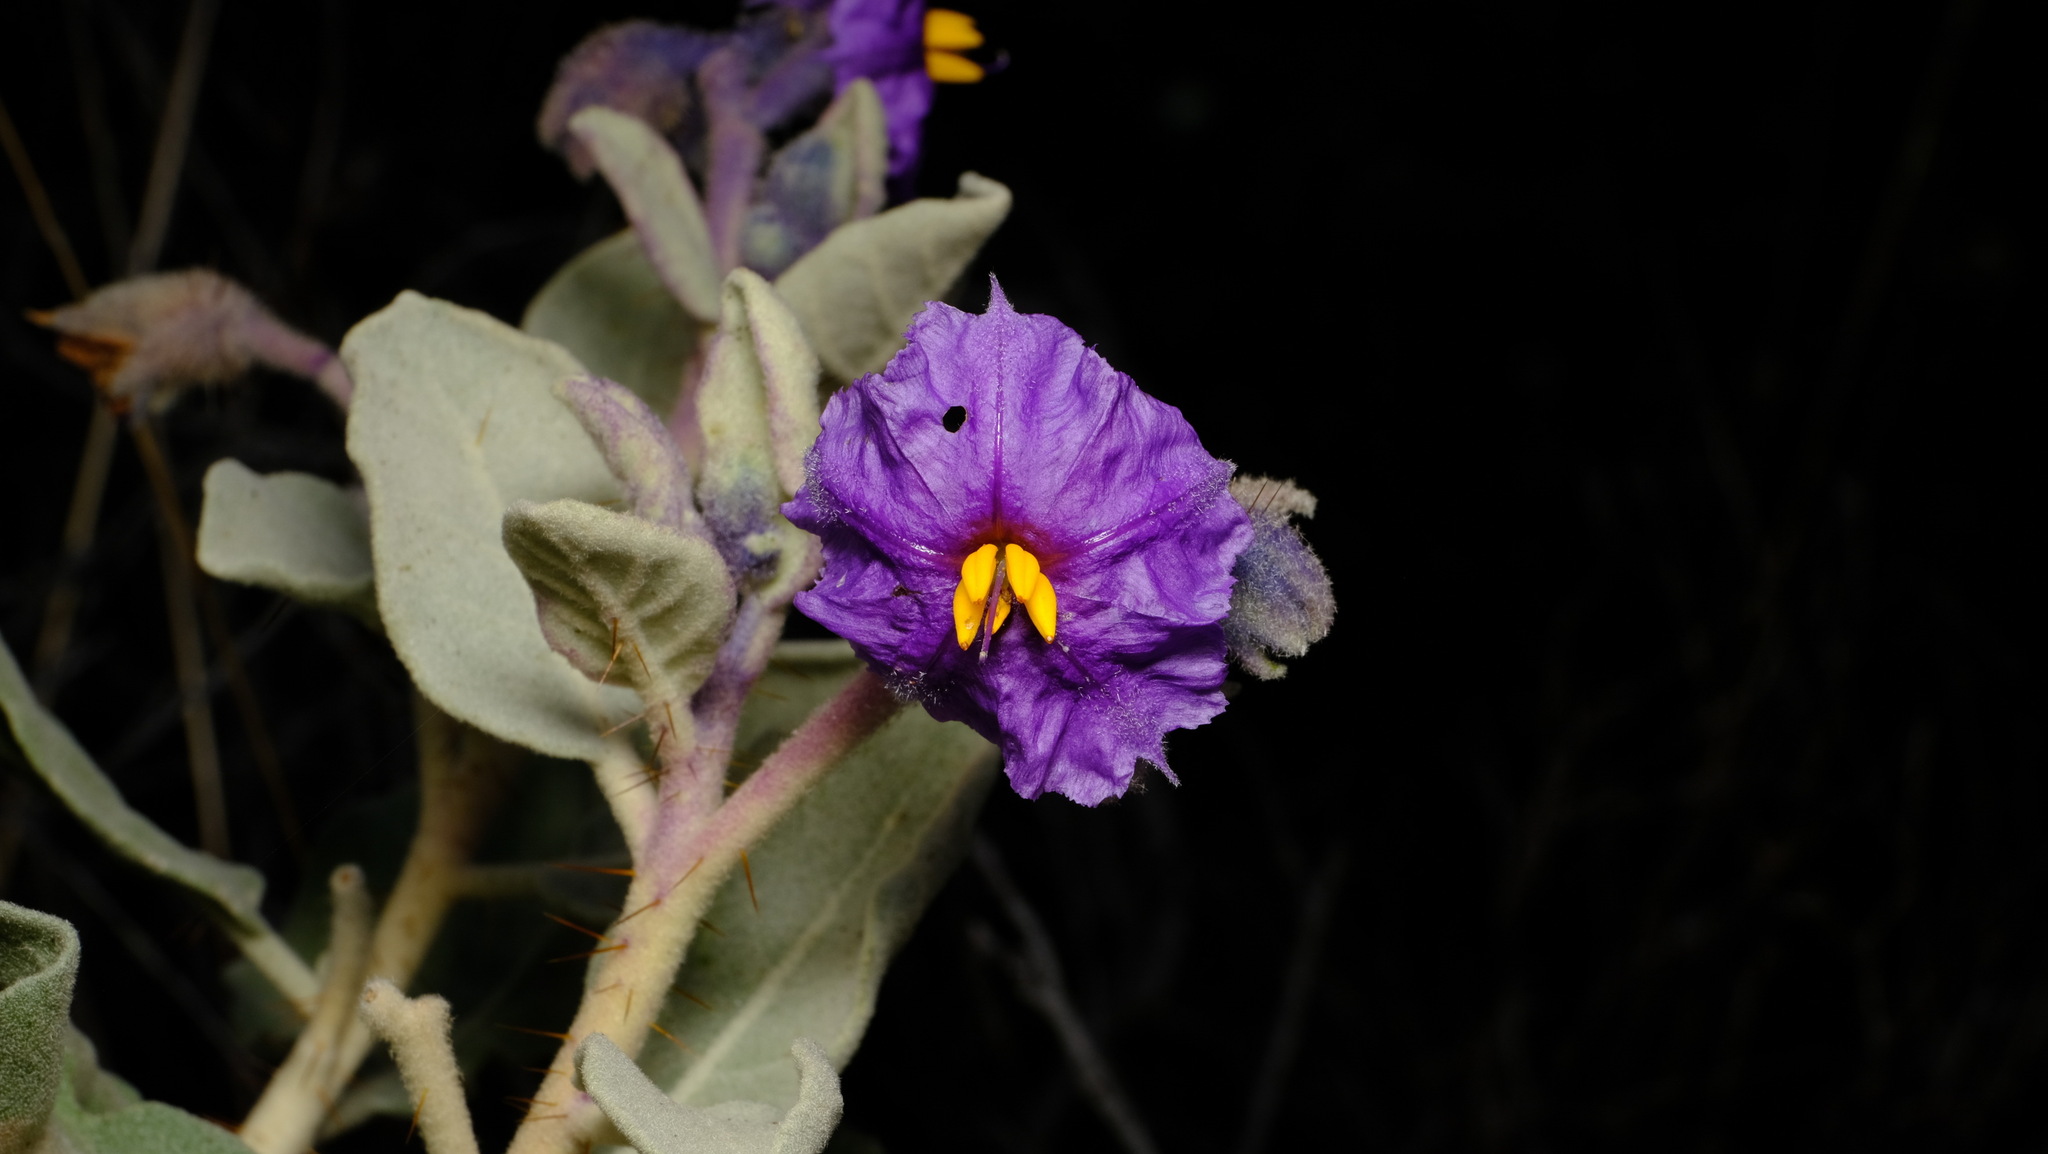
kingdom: Plantae
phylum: Tracheophyta
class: Magnoliopsida
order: Solanales
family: Solanaceae
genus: Solanum
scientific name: Solanum lasiophyllum
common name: Flannelbush
